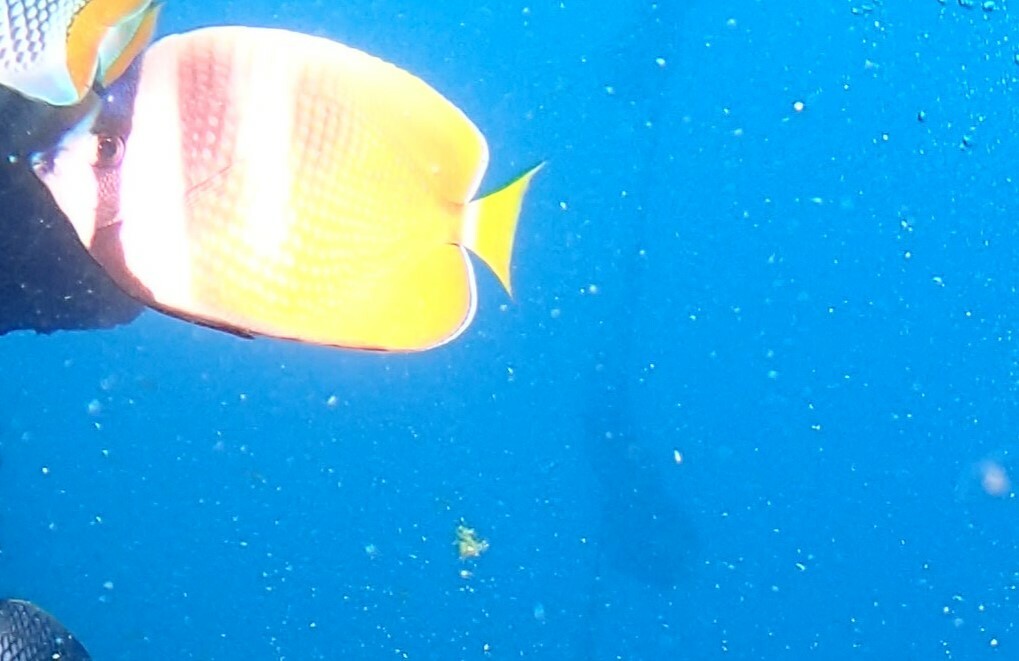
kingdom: Animalia
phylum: Chordata
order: Perciformes
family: Chaetodontidae
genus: Chaetodon
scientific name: Chaetodon kleinii
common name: Klein's butterflyfish
